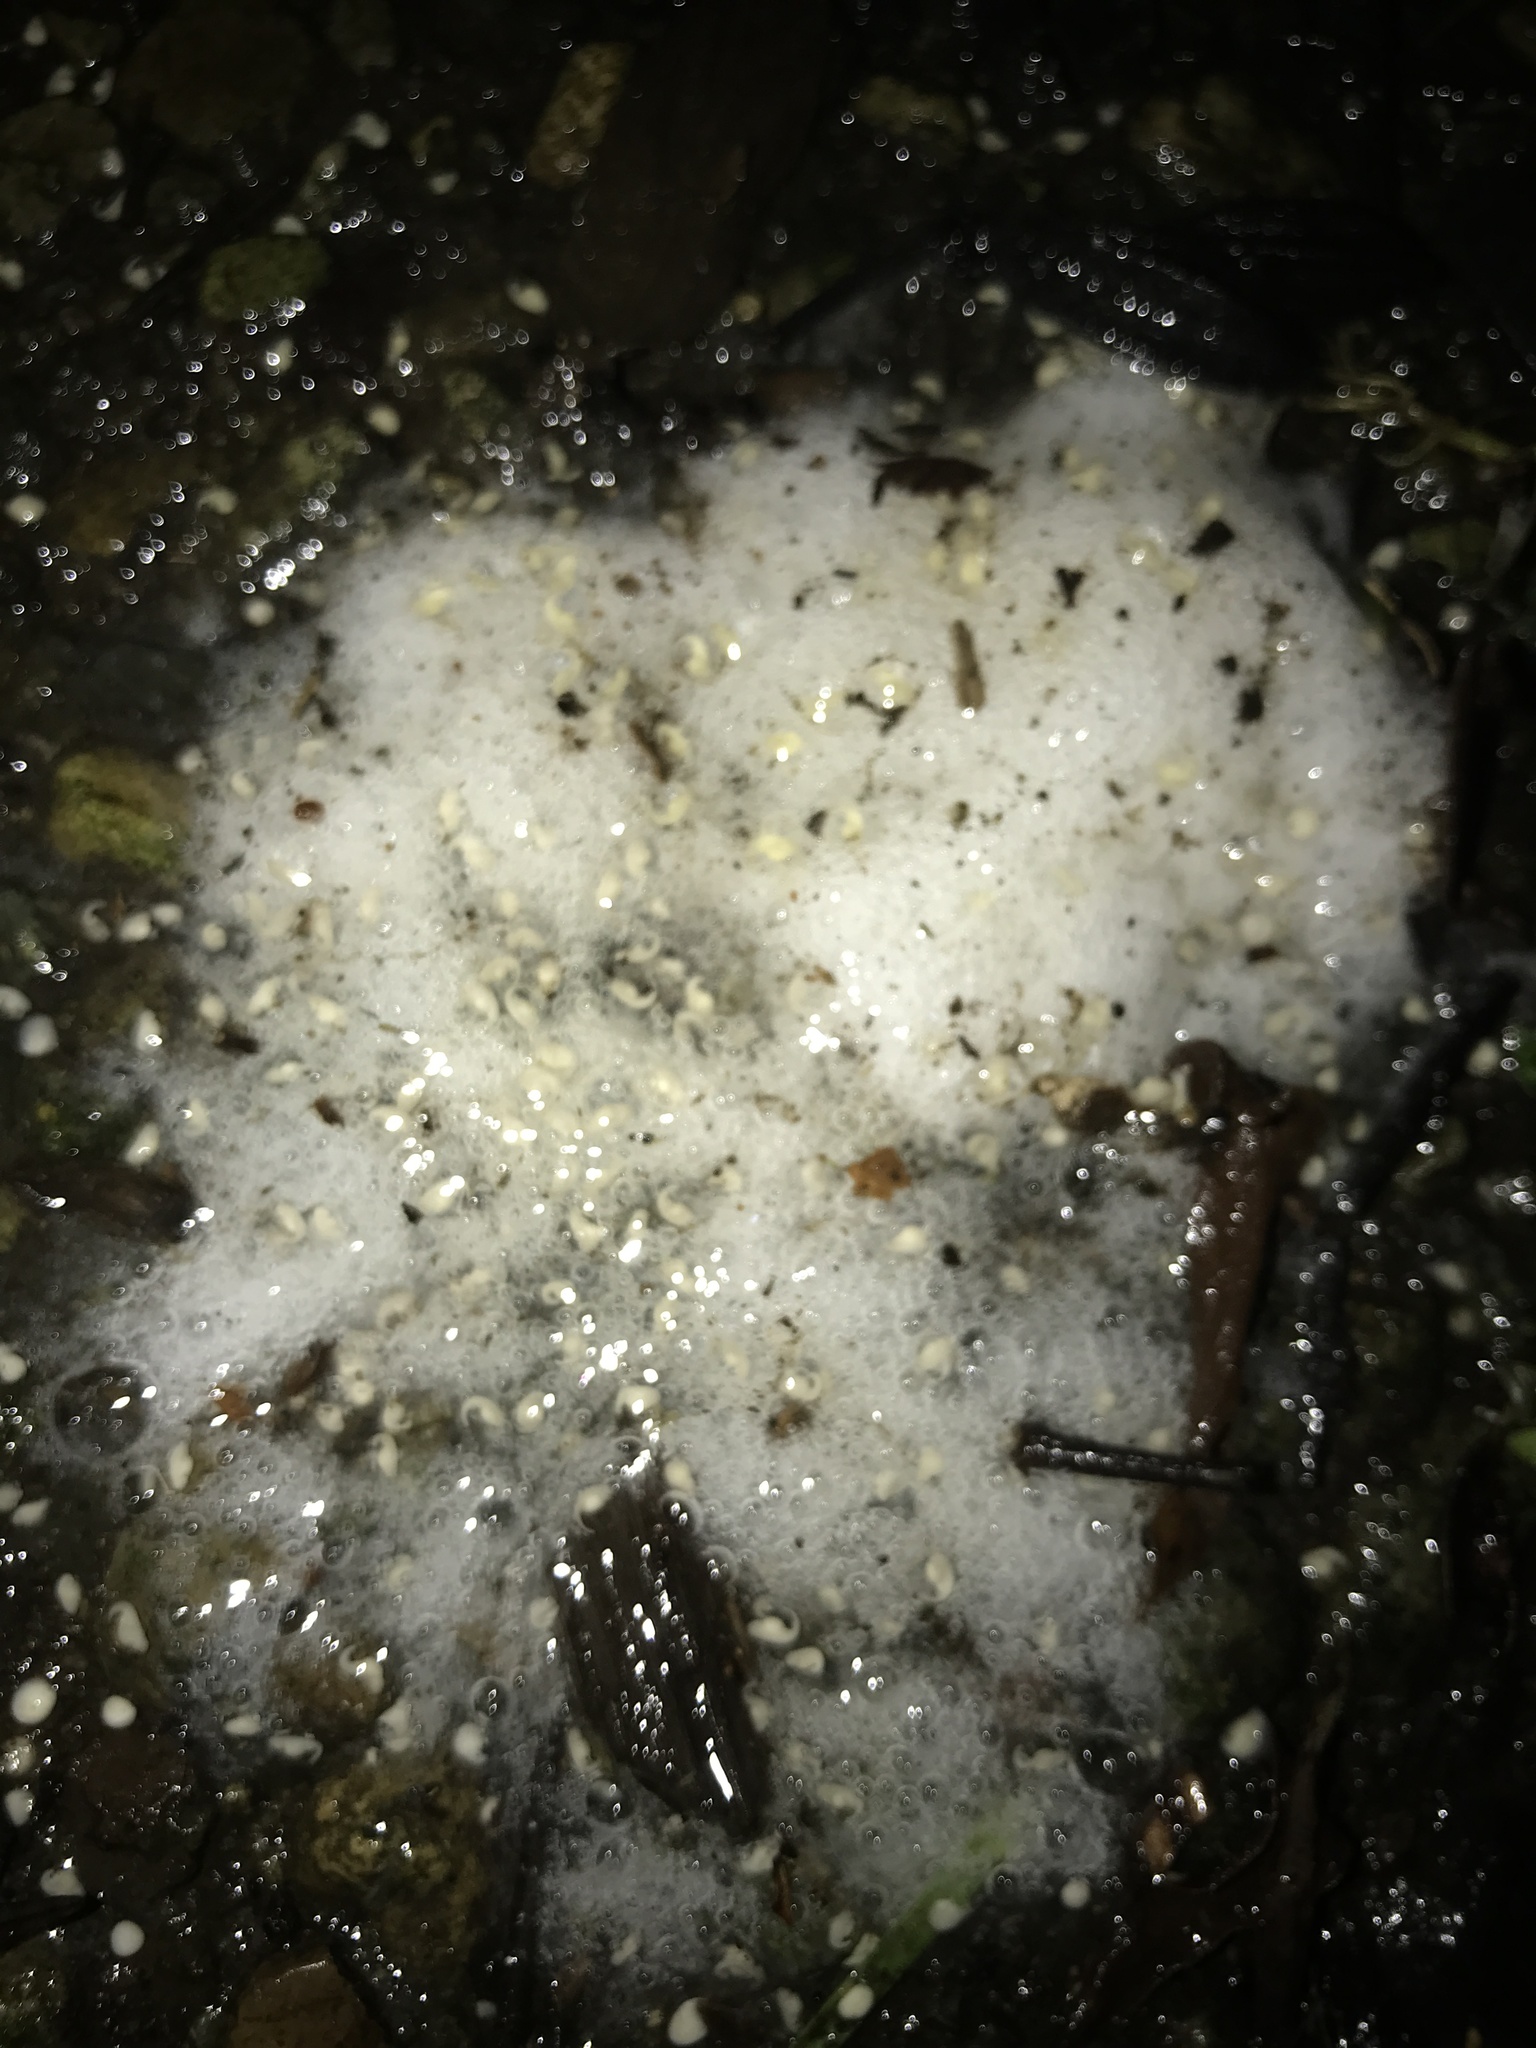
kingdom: Animalia
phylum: Chordata
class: Amphibia
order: Anura
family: Leptodactylidae
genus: Engystomops
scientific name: Engystomops pustulosus
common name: Tungara frog
